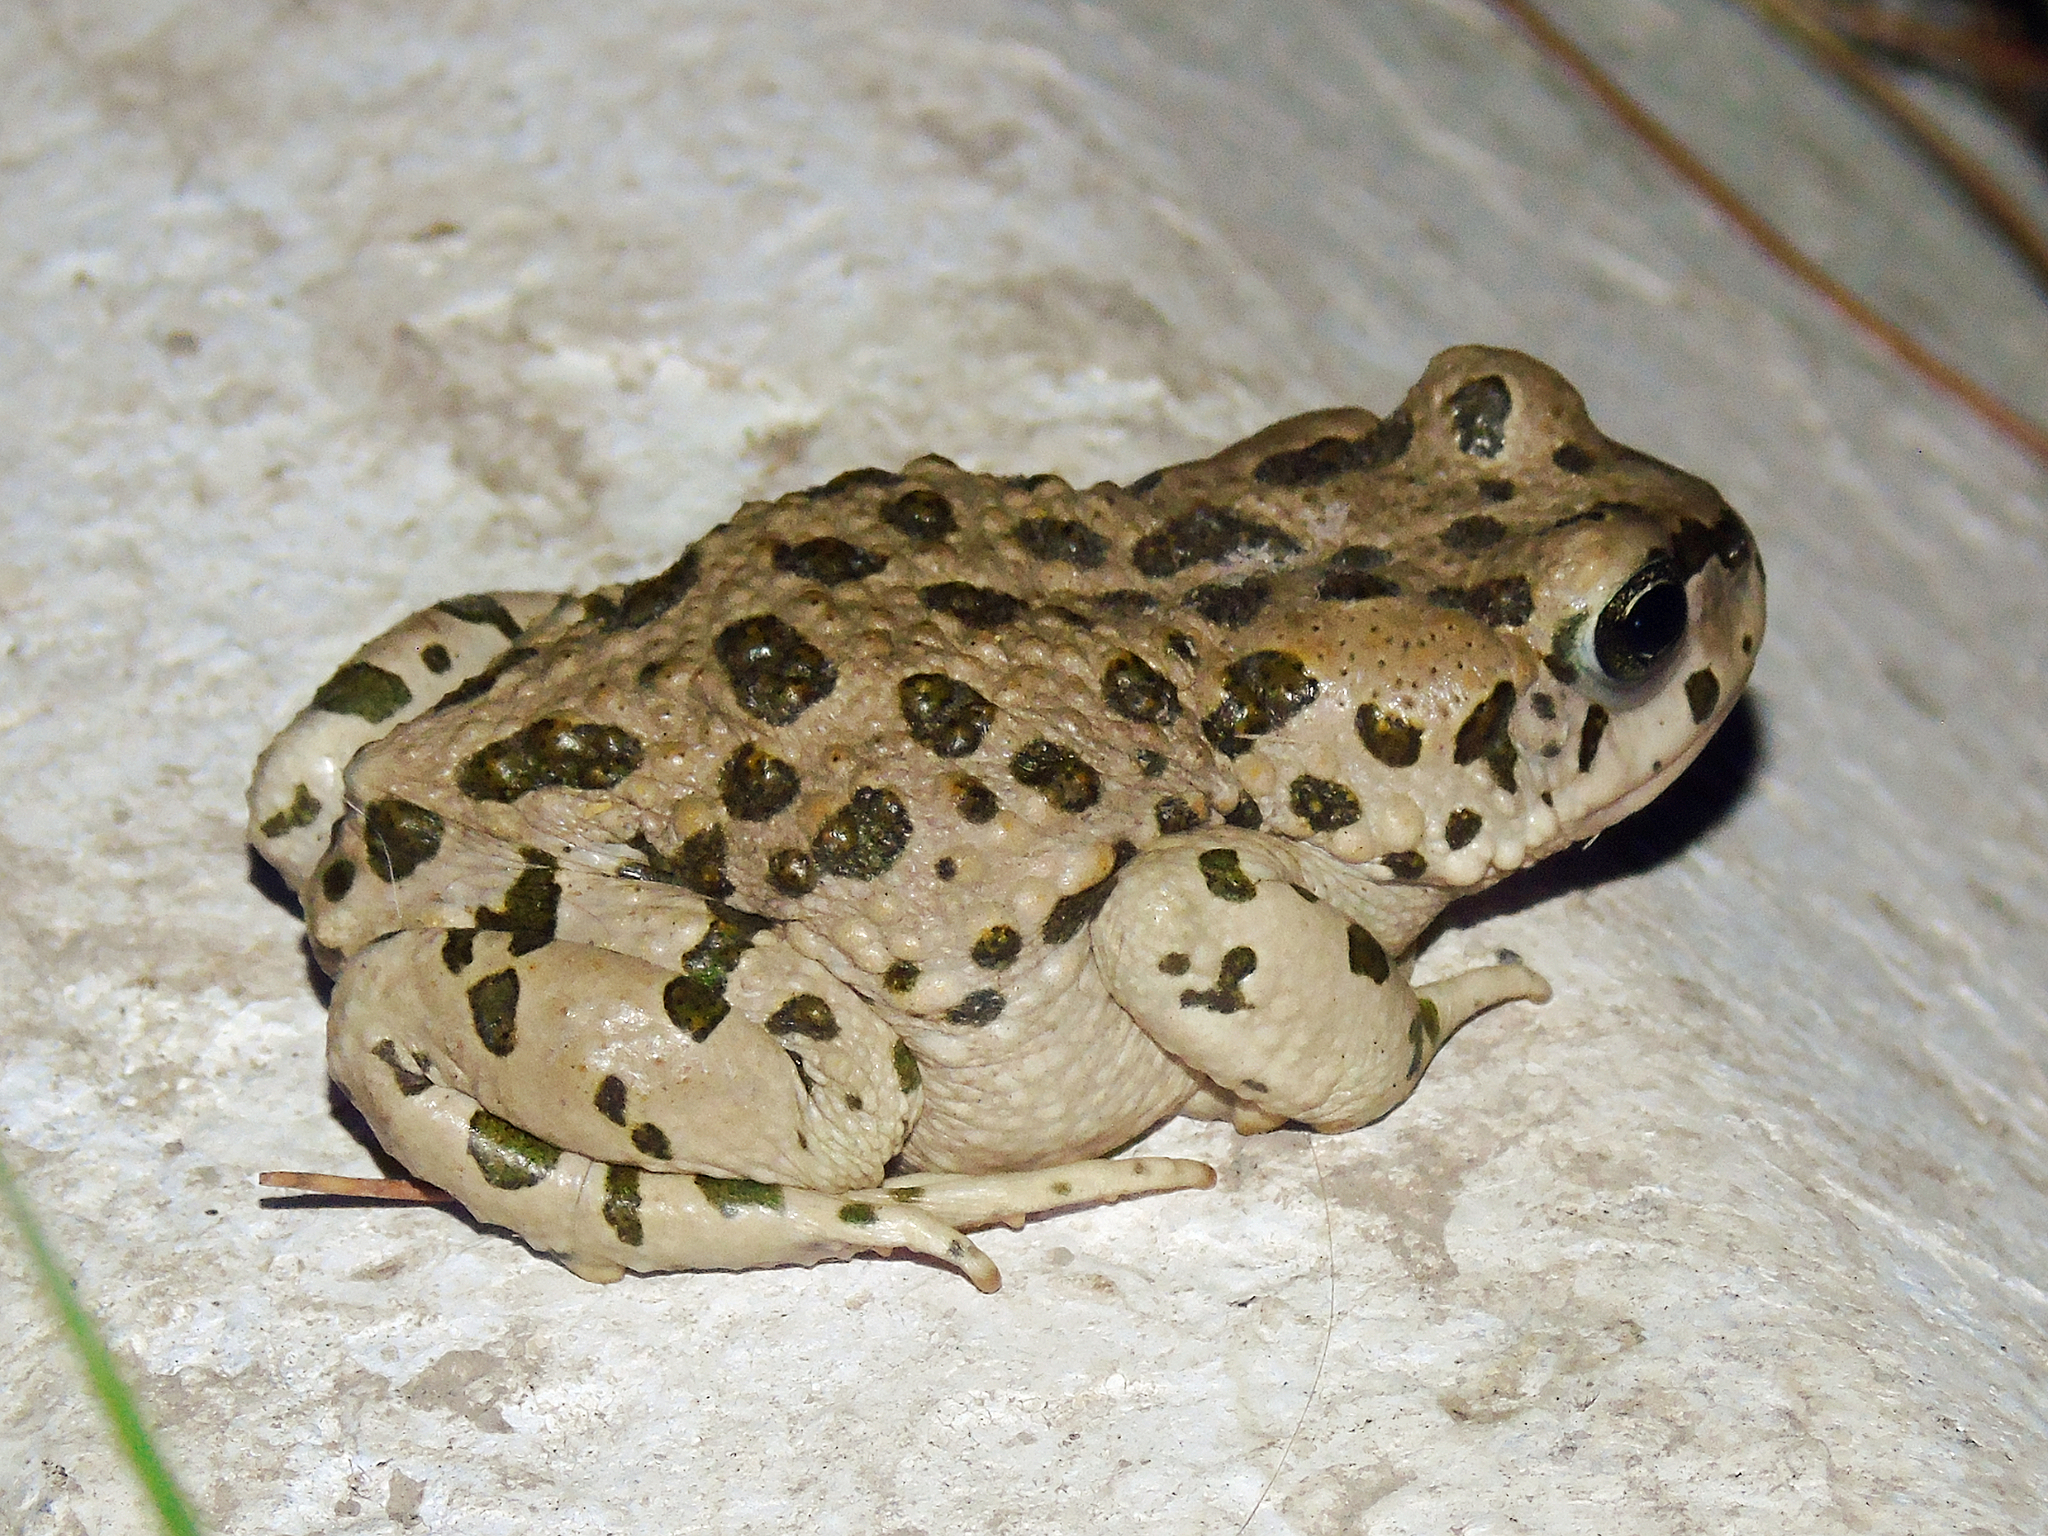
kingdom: Animalia
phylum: Chordata
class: Amphibia
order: Anura
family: Bufonidae
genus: Bufotes
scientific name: Bufotes pewzowi
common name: Xinjiang toad
